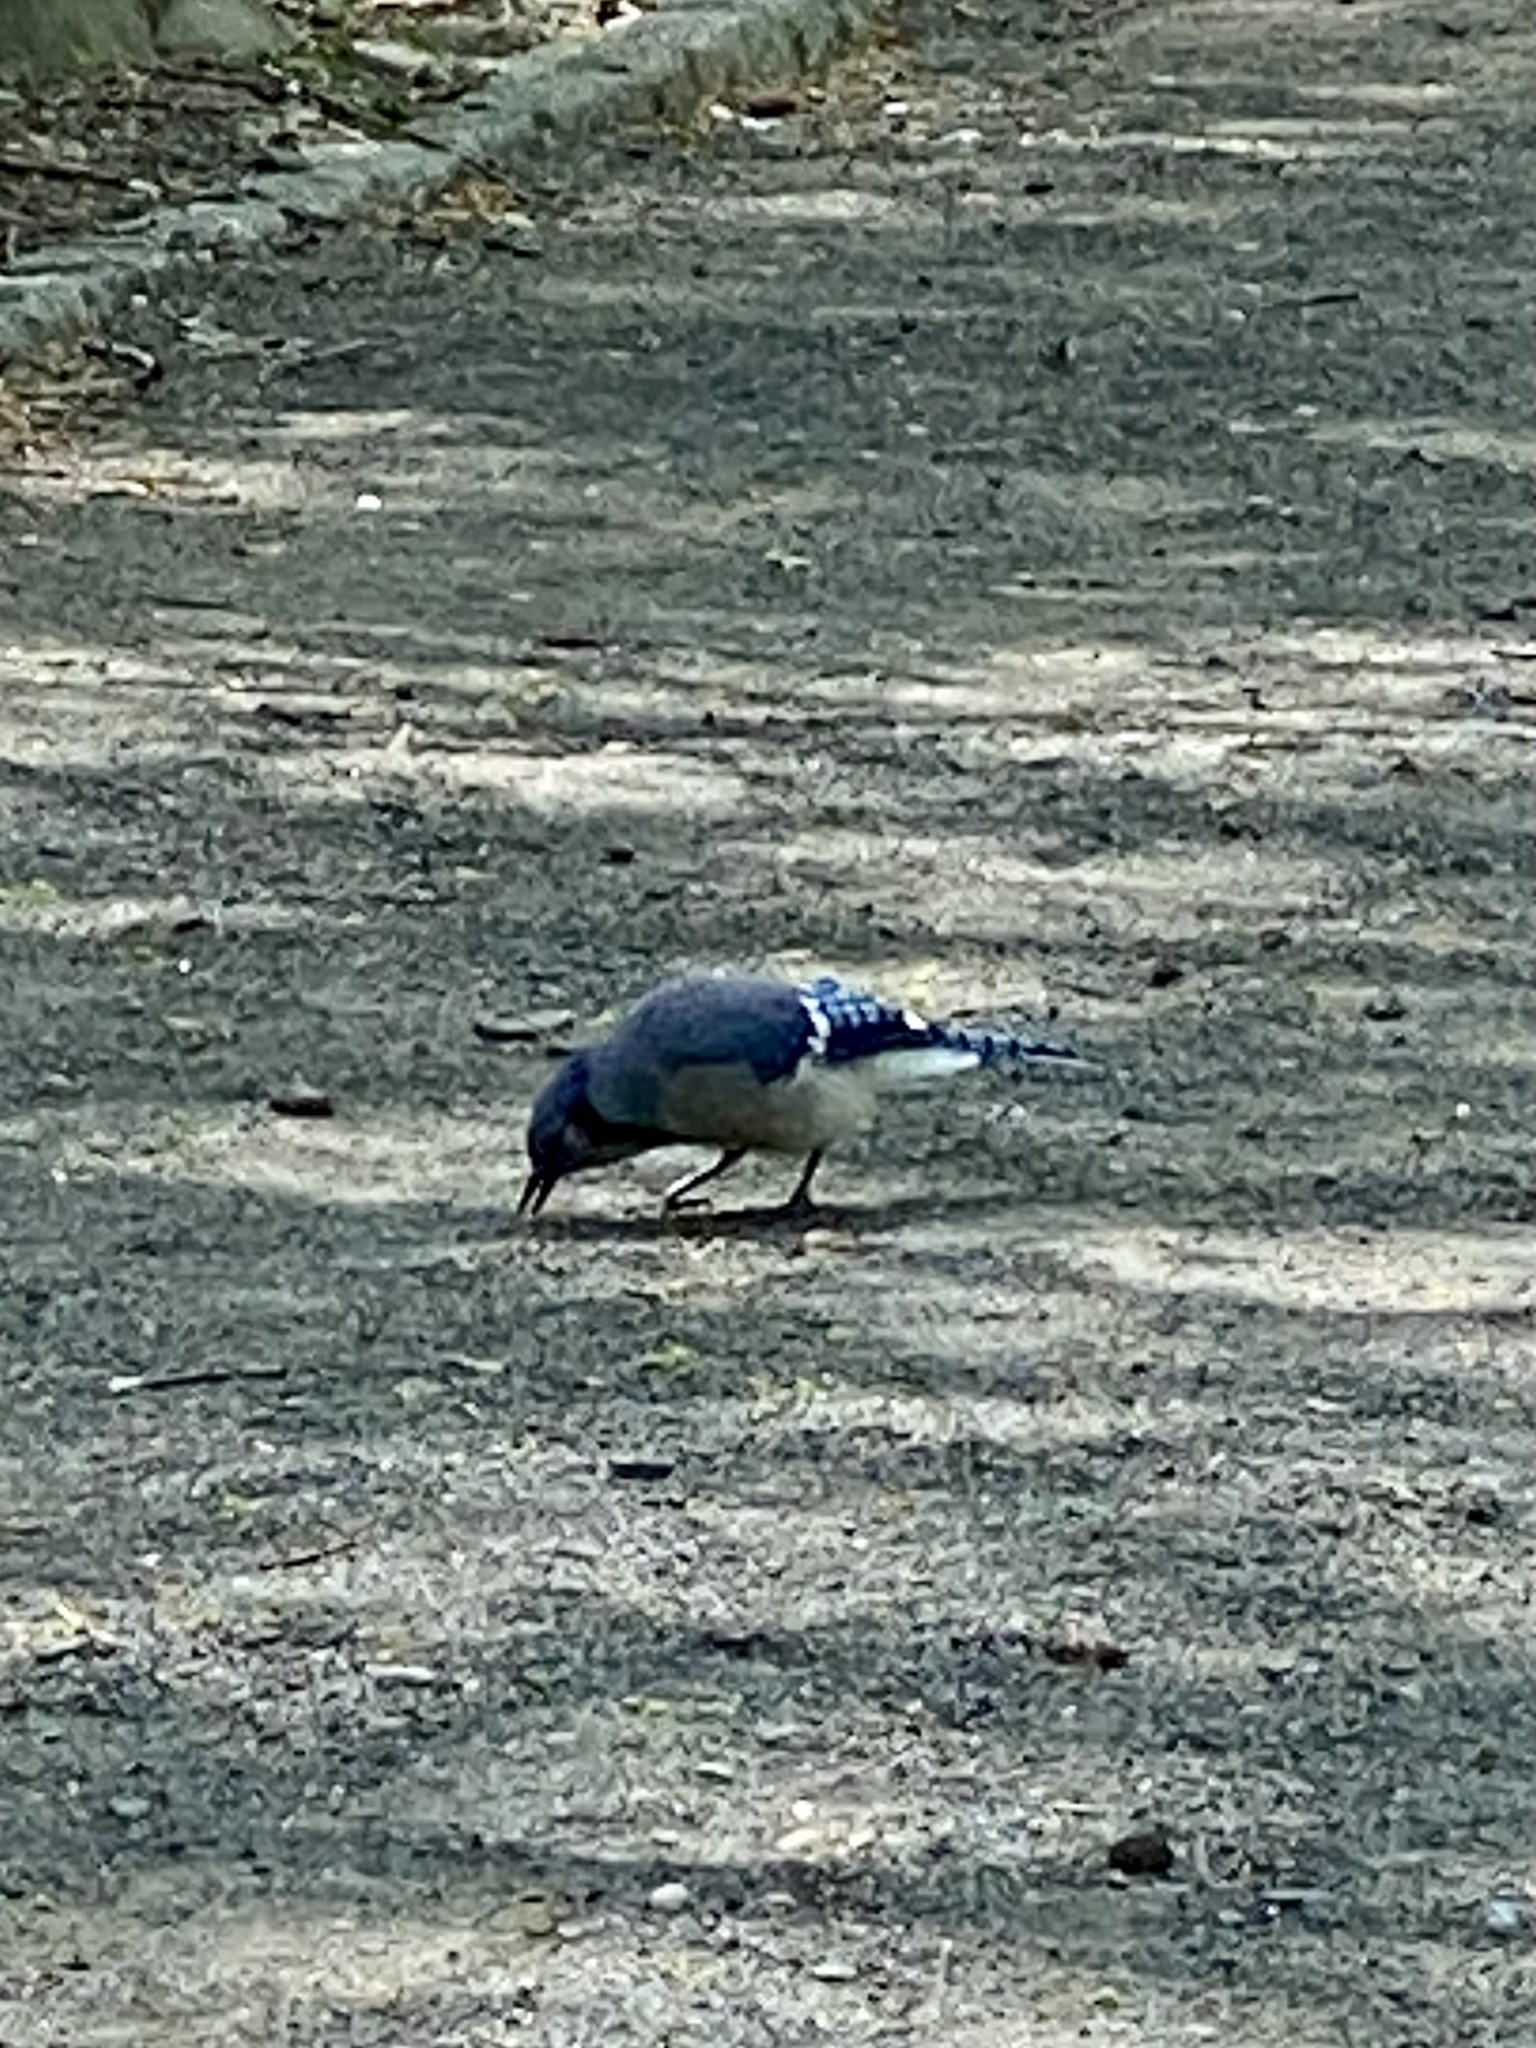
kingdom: Animalia
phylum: Chordata
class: Aves
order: Passeriformes
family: Corvidae
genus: Cyanocitta
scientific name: Cyanocitta cristata
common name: Blue jay
